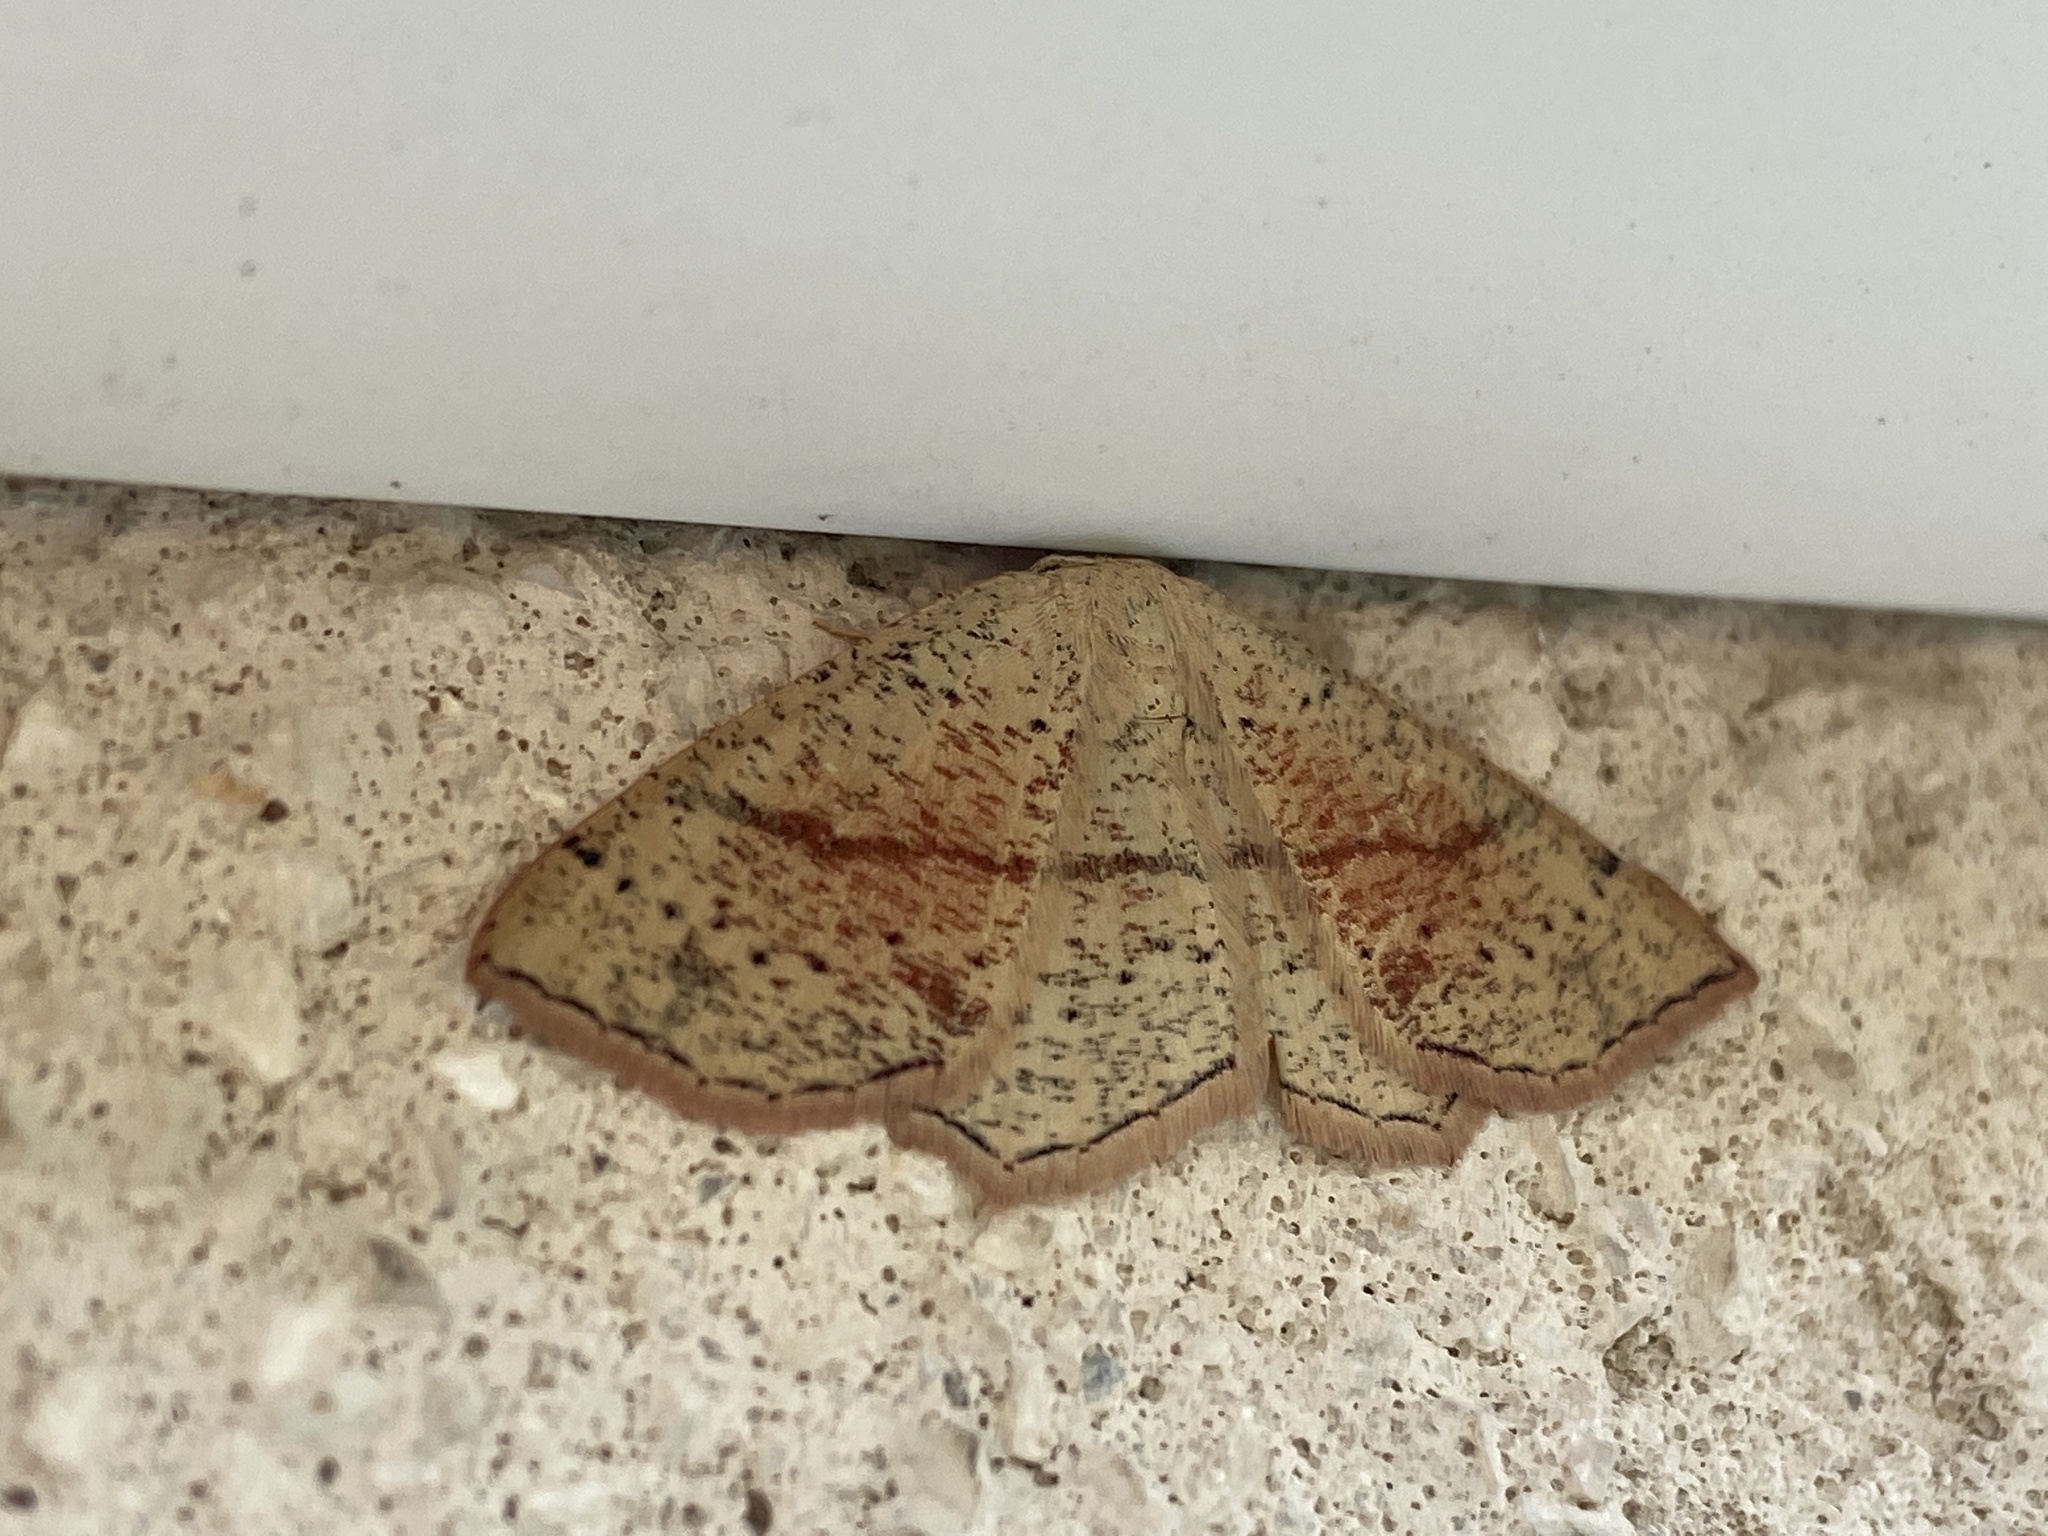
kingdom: Animalia
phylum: Arthropoda
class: Insecta
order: Lepidoptera
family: Geometridae
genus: Cyclophora
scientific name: Cyclophora punctaria
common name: Maiden's blush
